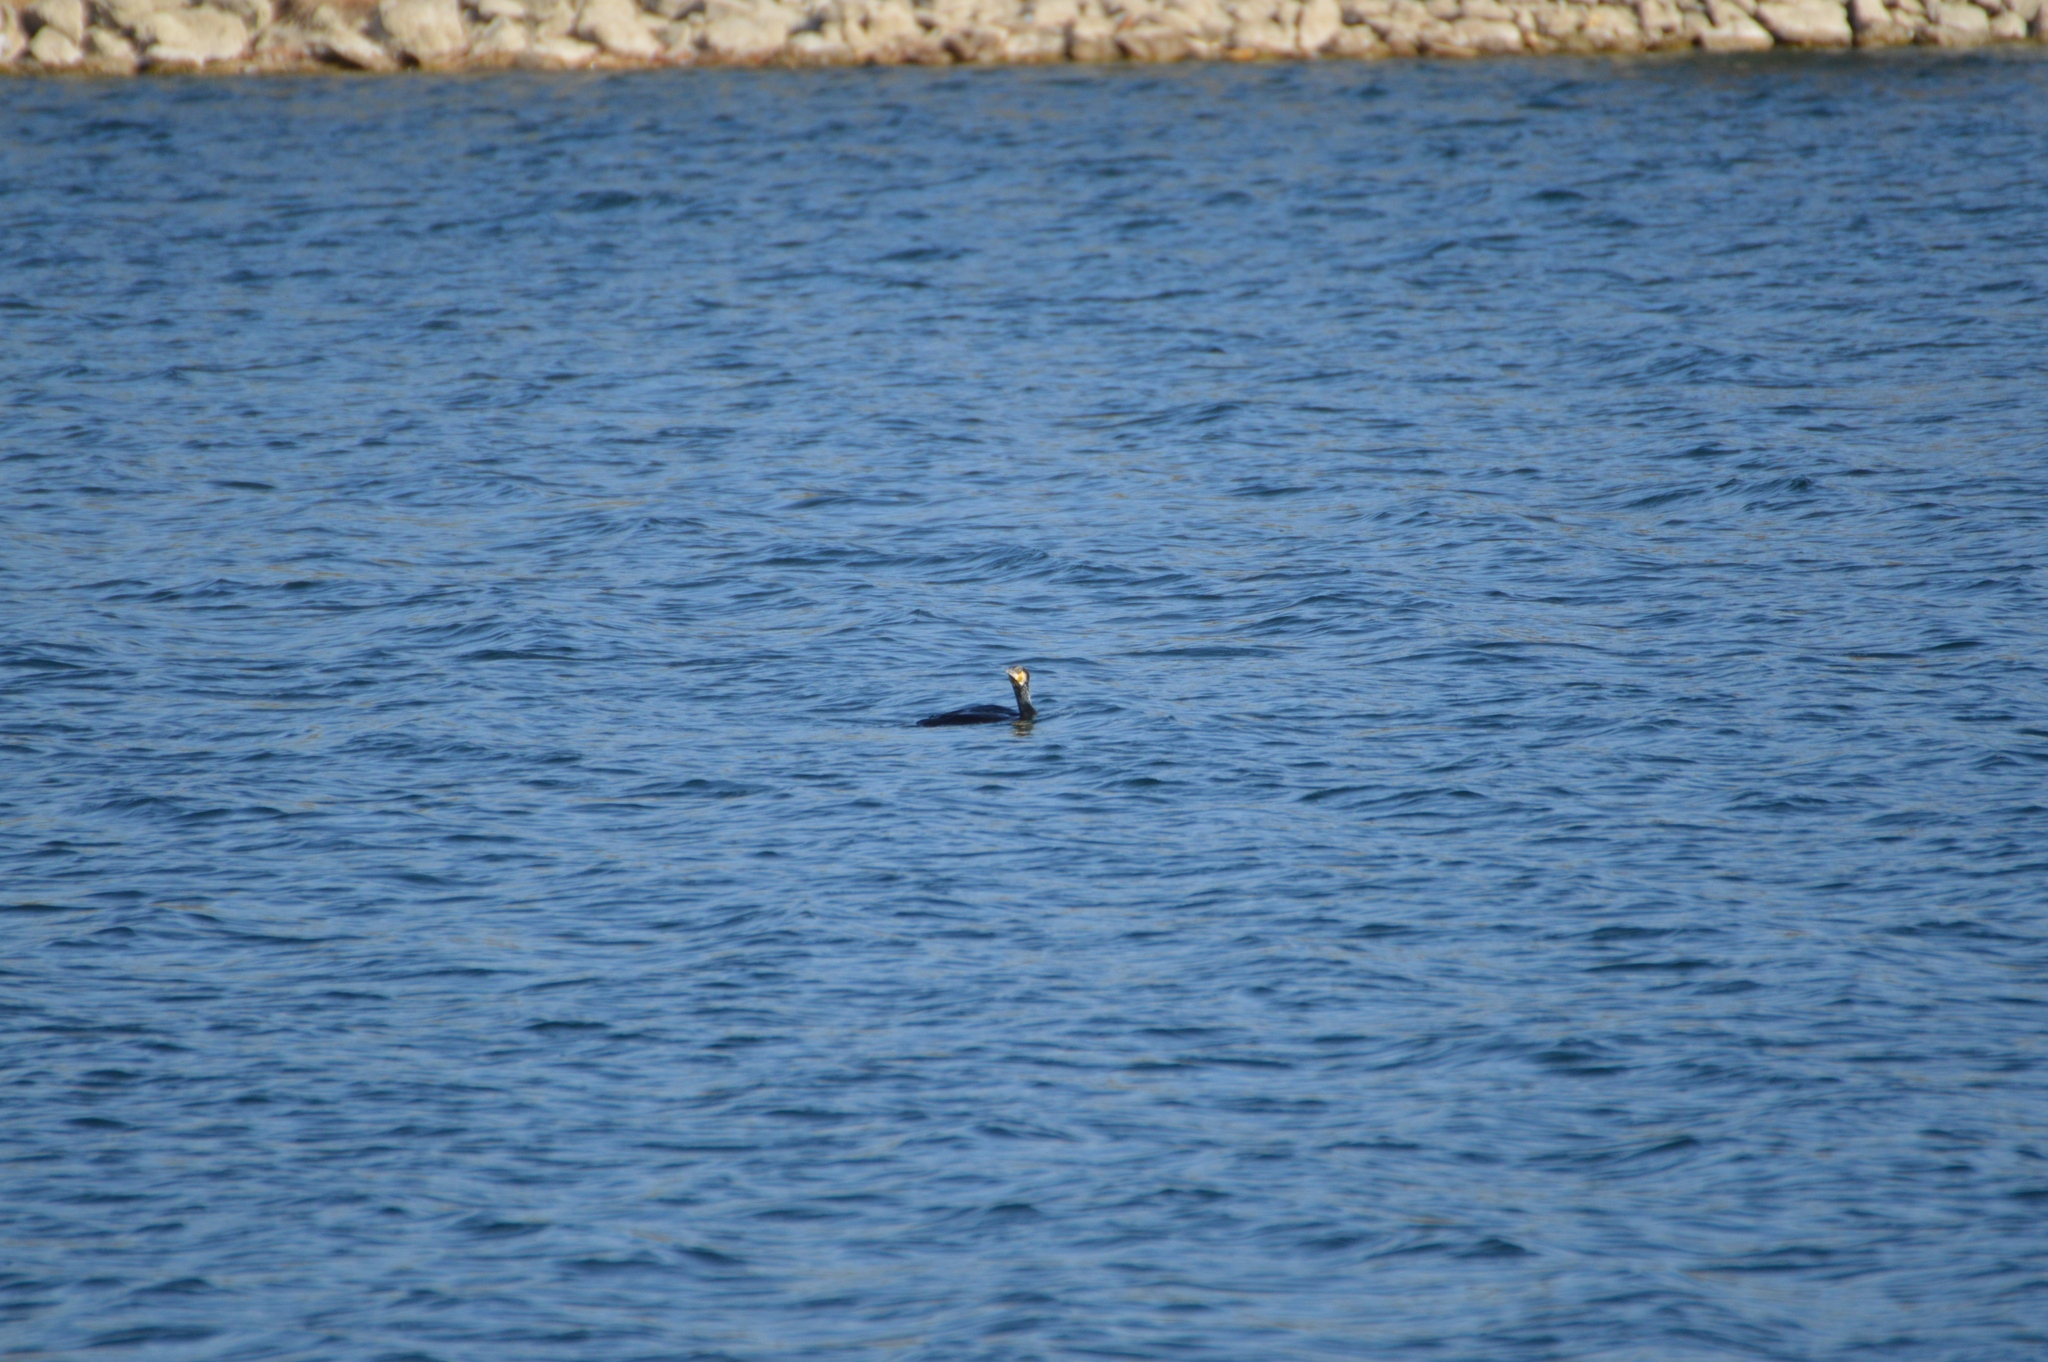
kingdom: Animalia
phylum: Chordata
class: Aves
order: Suliformes
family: Phalacrocoracidae
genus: Phalacrocorax
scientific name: Phalacrocorax carbo
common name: Great cormorant
